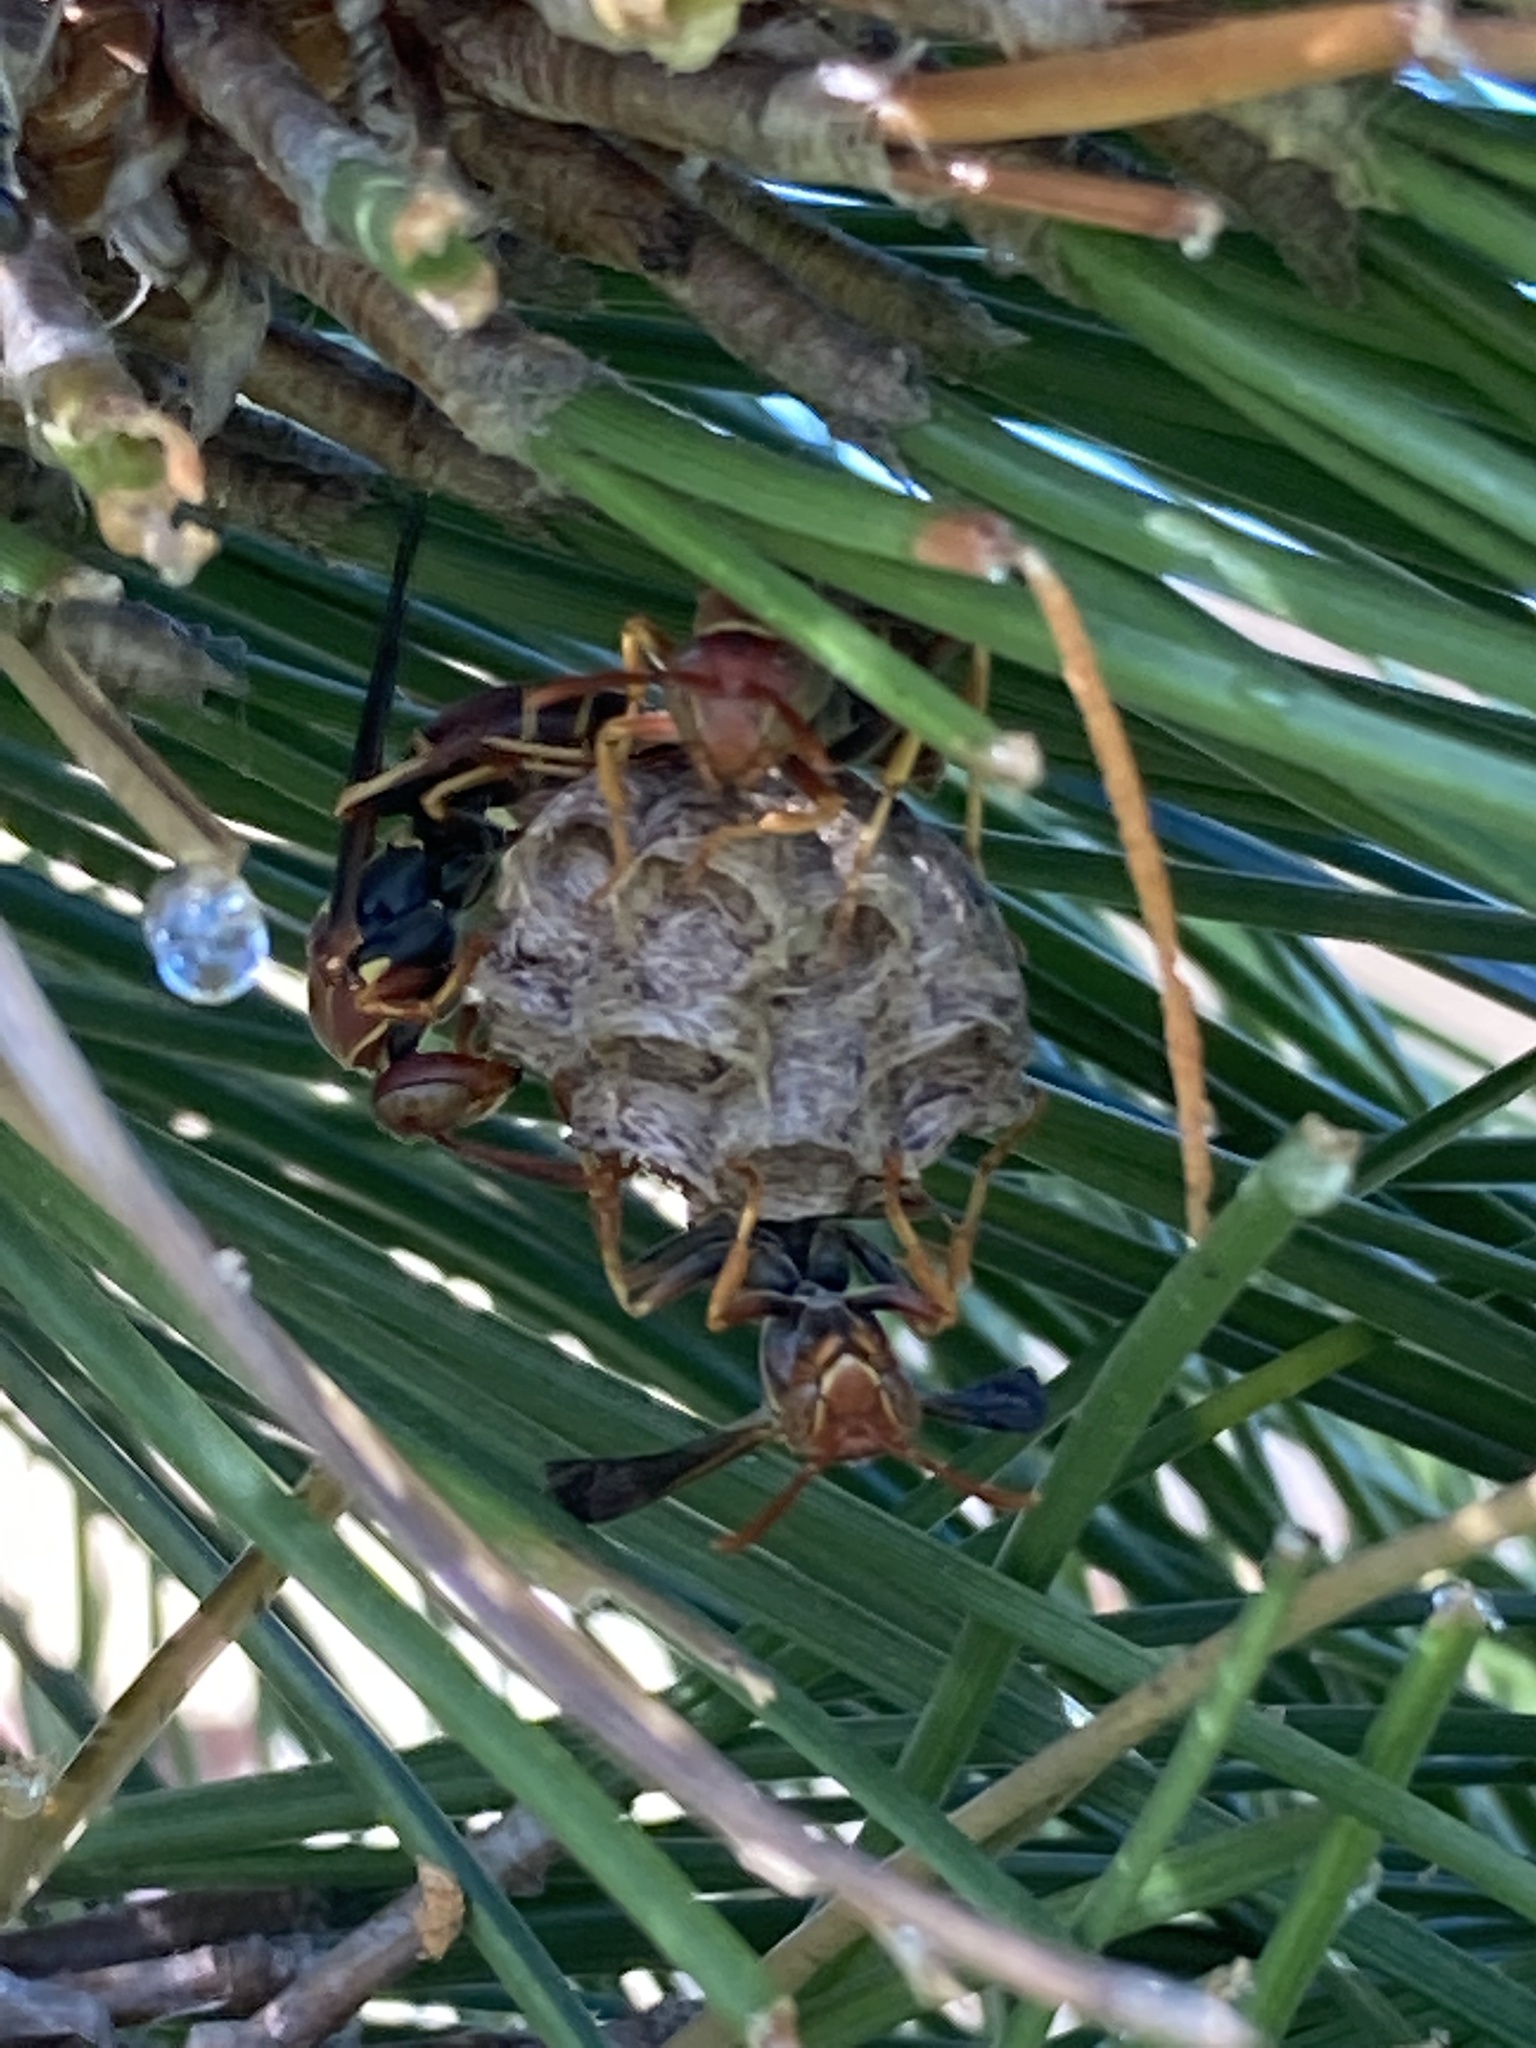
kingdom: Animalia
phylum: Arthropoda
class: Insecta
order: Hymenoptera
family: Eumenidae
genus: Polistes
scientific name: Polistes dorsalis
